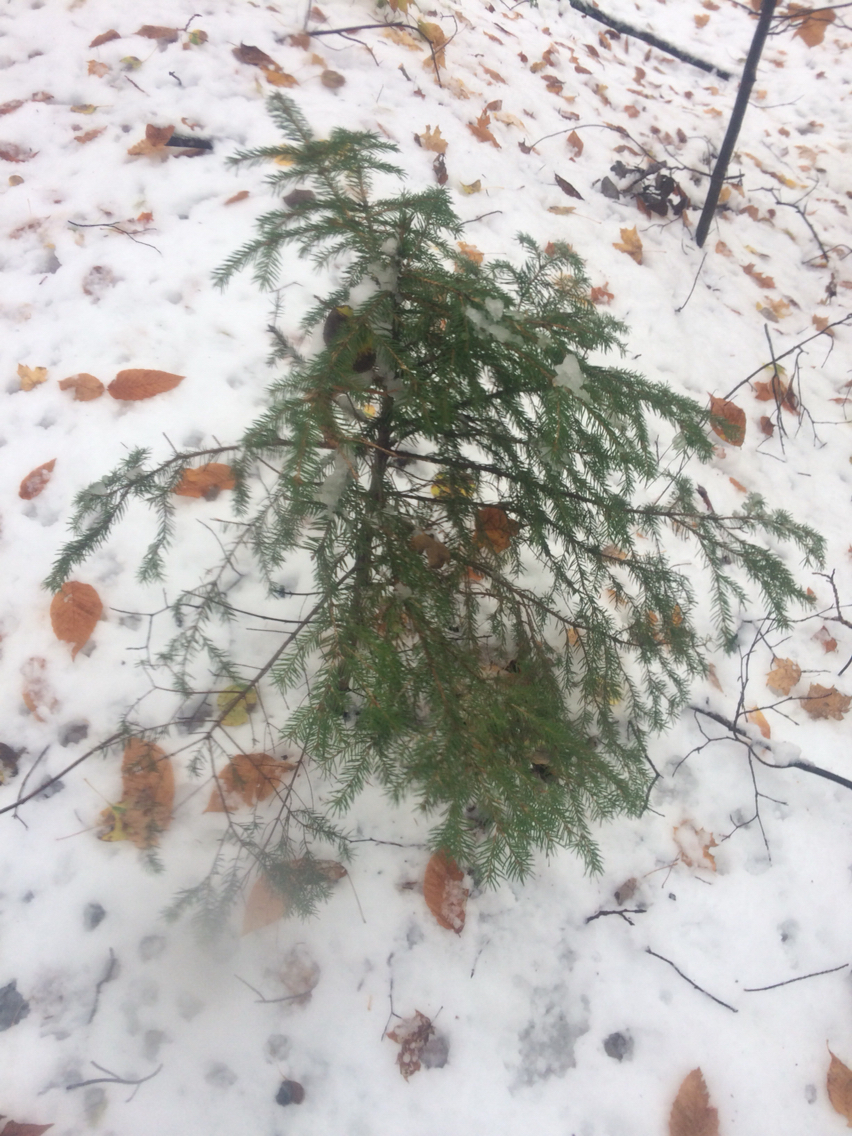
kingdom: Plantae
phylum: Tracheophyta
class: Pinopsida
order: Pinales
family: Pinaceae
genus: Picea
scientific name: Picea rubens
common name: Red spruce
